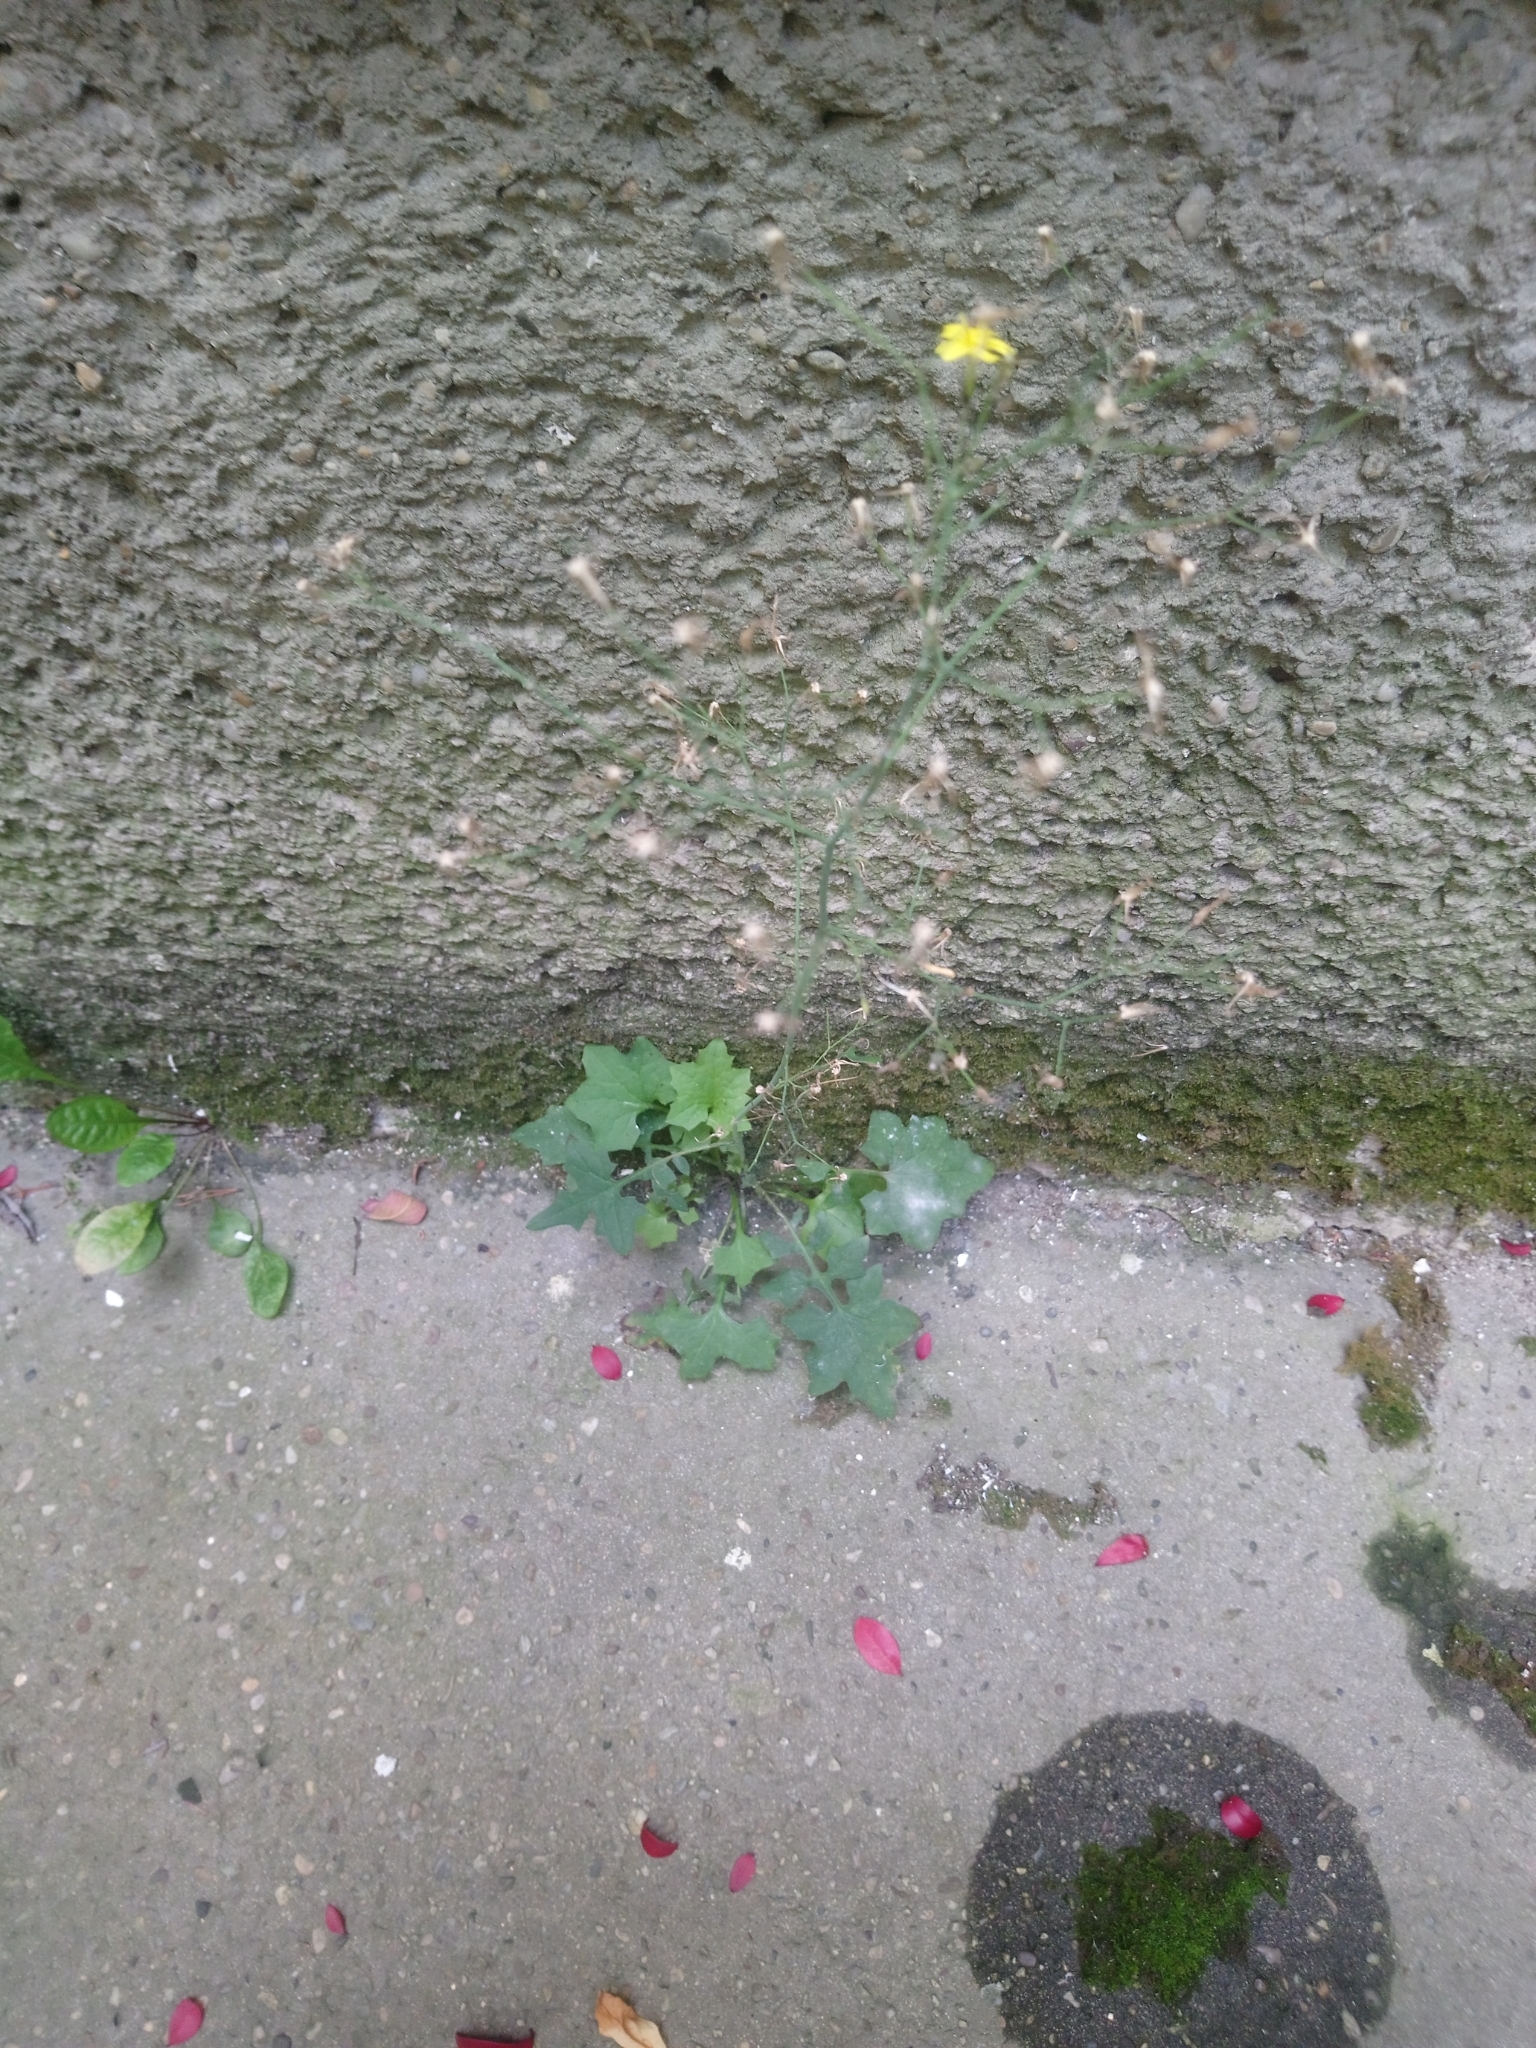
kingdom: Plantae
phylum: Tracheophyta
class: Magnoliopsida
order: Asterales
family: Asteraceae
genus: Mycelis
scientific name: Mycelis muralis
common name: Wall lettuce
